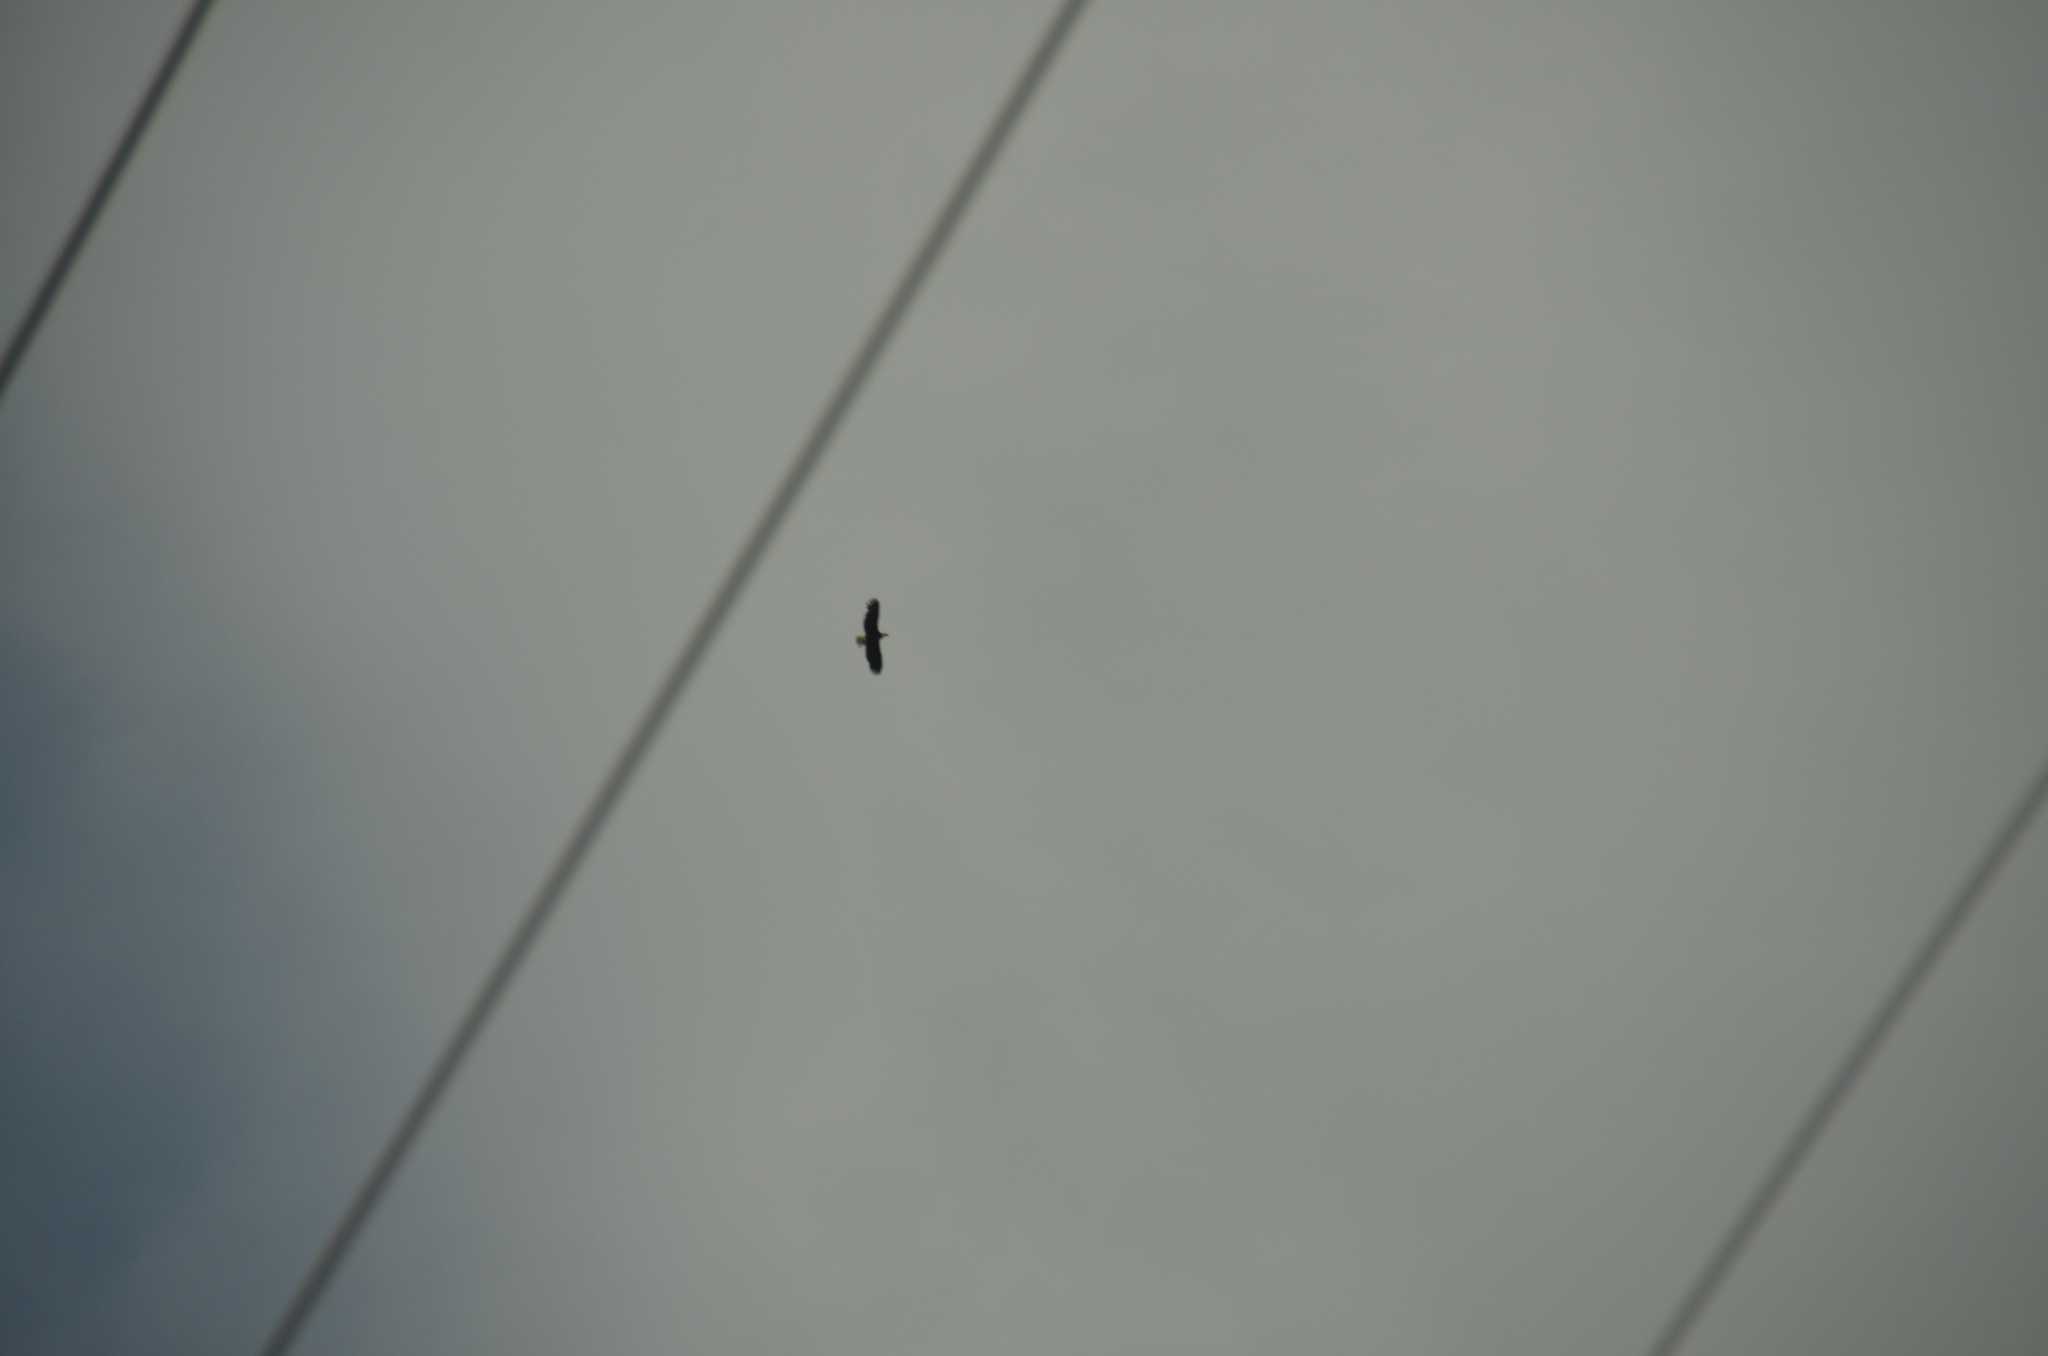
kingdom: Animalia
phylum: Chordata
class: Aves
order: Accipitriformes
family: Accipitridae
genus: Haliaeetus
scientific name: Haliaeetus leucocephalus
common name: Bald eagle
